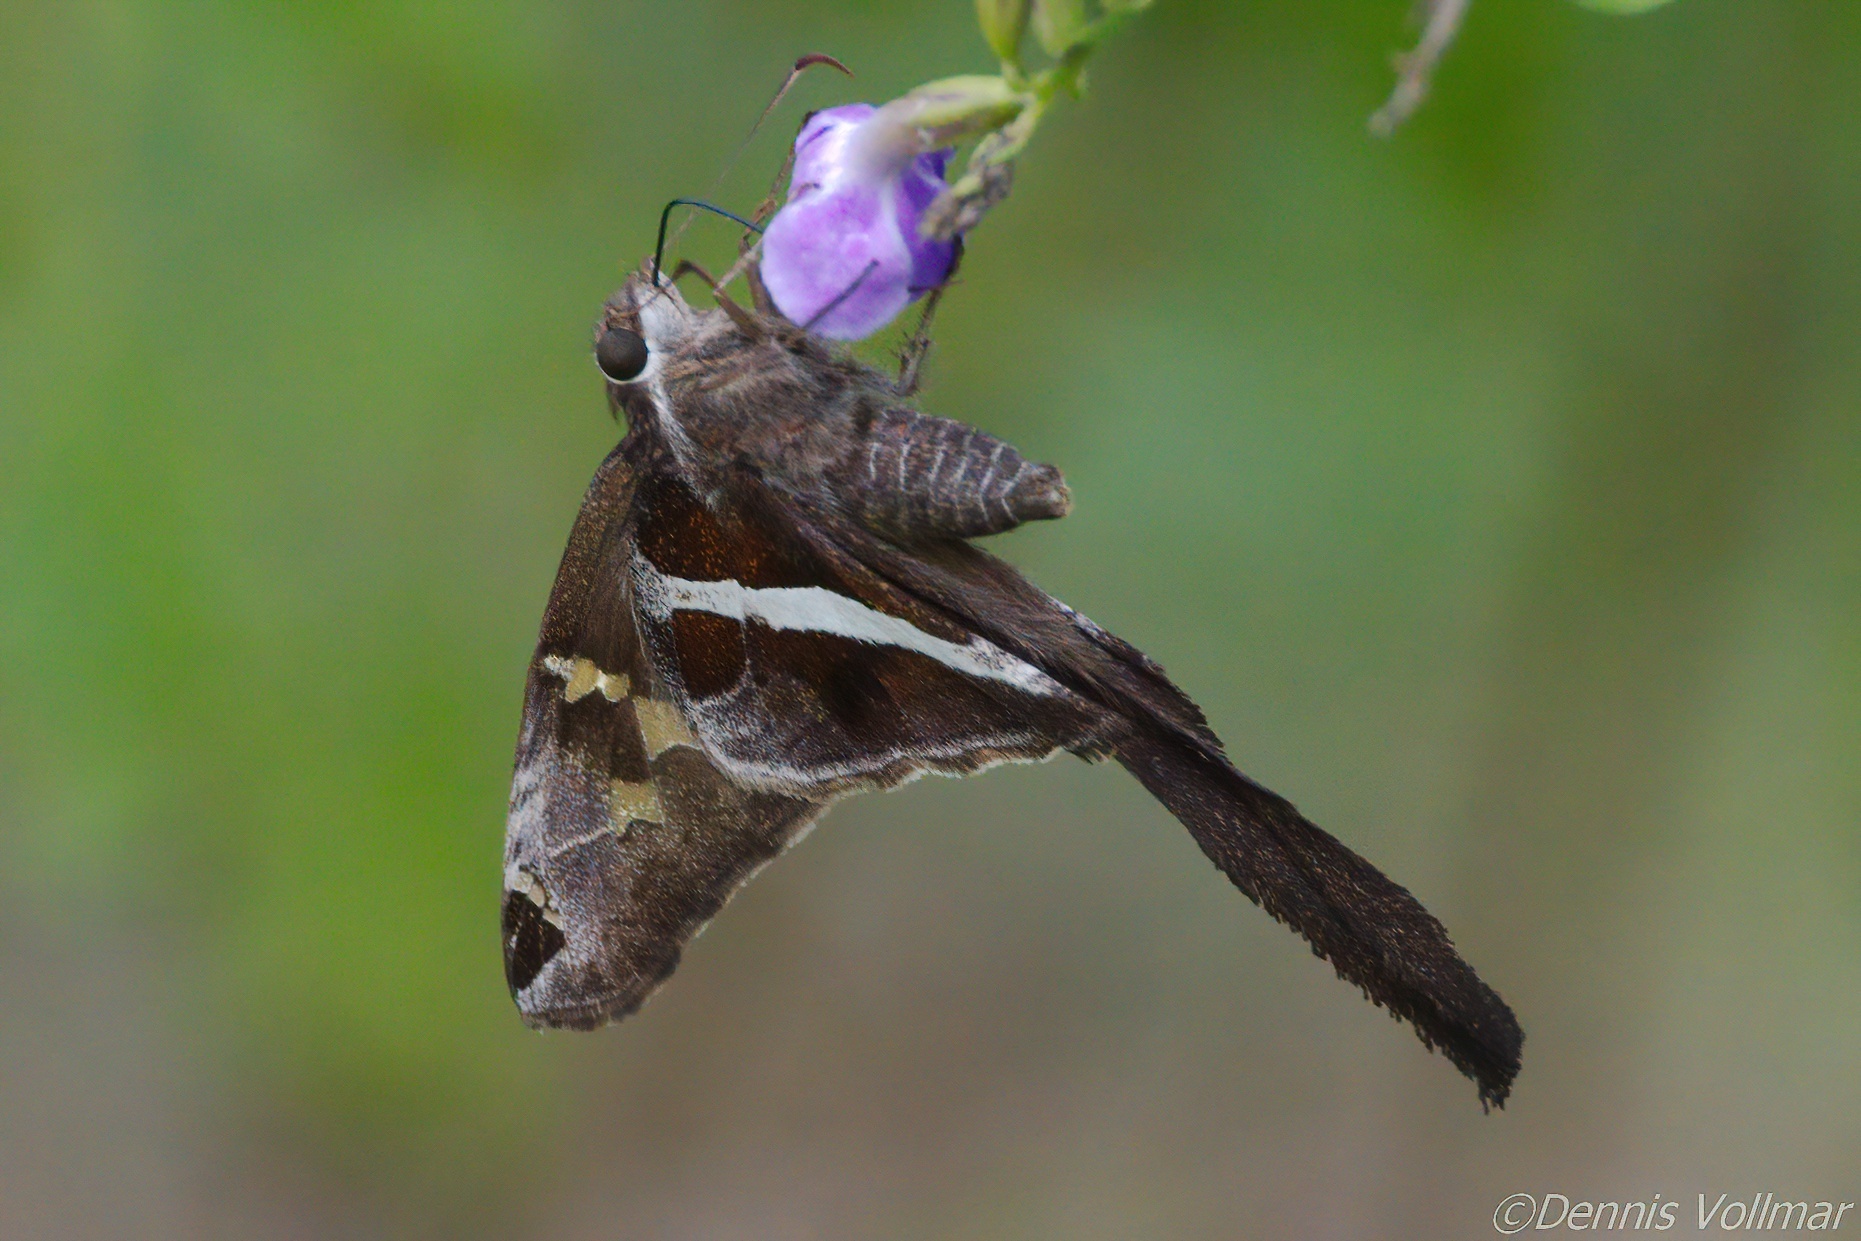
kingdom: Animalia
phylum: Arthropoda
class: Insecta
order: Lepidoptera
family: Hesperiidae
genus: Chioides
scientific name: Chioides catillus
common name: Silverbanded skipper
